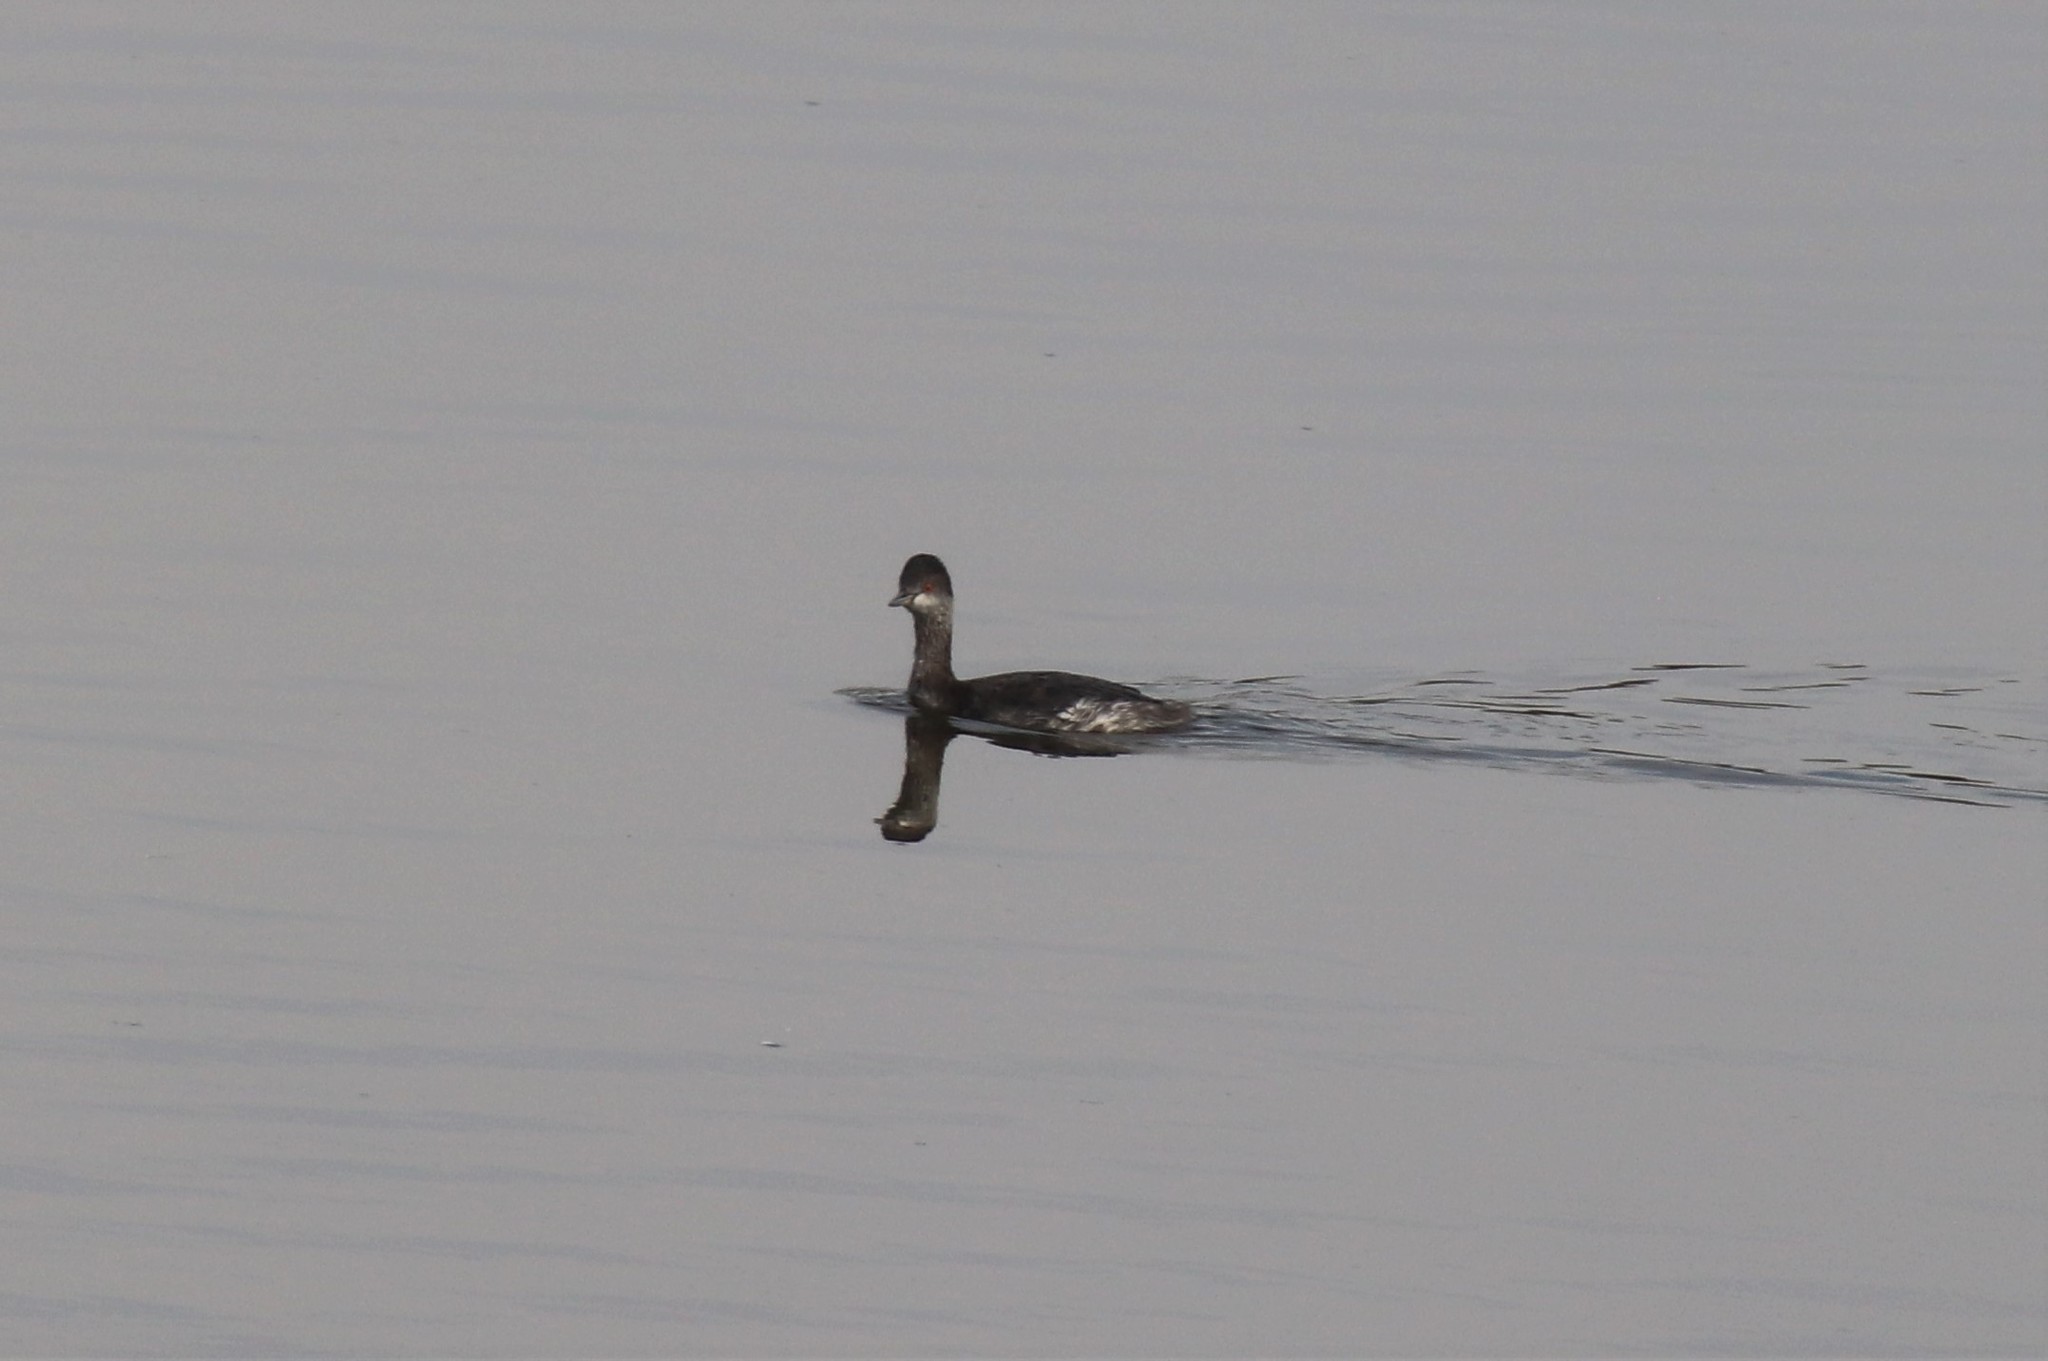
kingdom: Animalia
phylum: Chordata
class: Aves
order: Podicipediformes
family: Podicipedidae
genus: Podiceps
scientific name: Podiceps nigricollis
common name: Black-necked grebe
